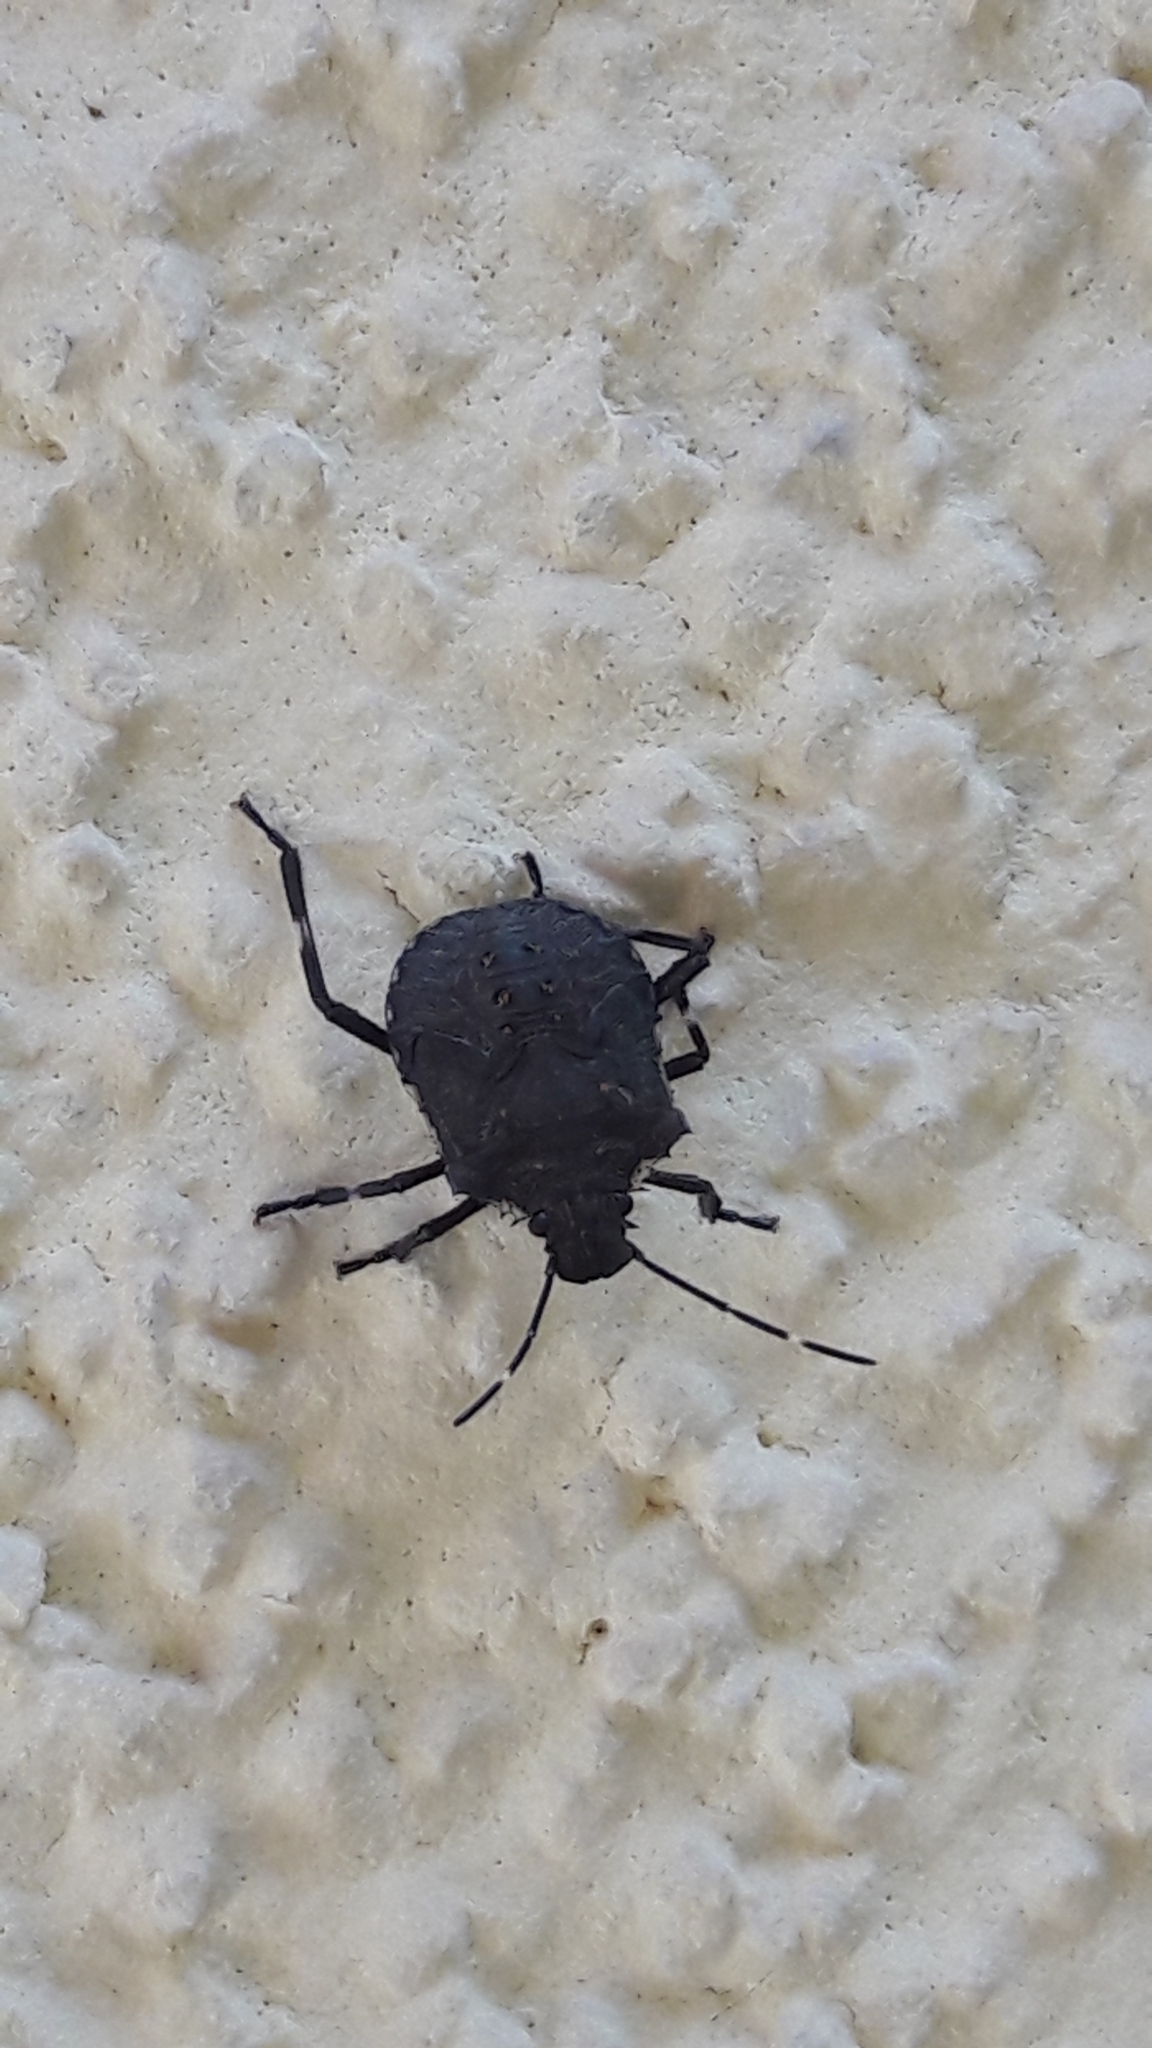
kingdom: Animalia
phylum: Arthropoda
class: Insecta
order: Hemiptera
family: Pentatomidae
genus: Halyomorpha
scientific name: Halyomorpha halys
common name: Brown marmorated stink bug
